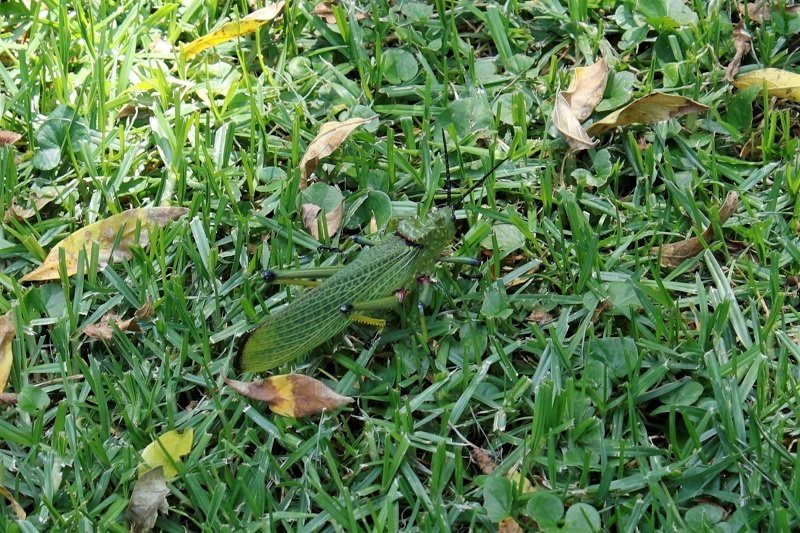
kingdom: Animalia
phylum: Arthropoda
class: Insecta
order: Orthoptera
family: Pyrgomorphidae
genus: Phymateus
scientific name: Phymateus viridipes
